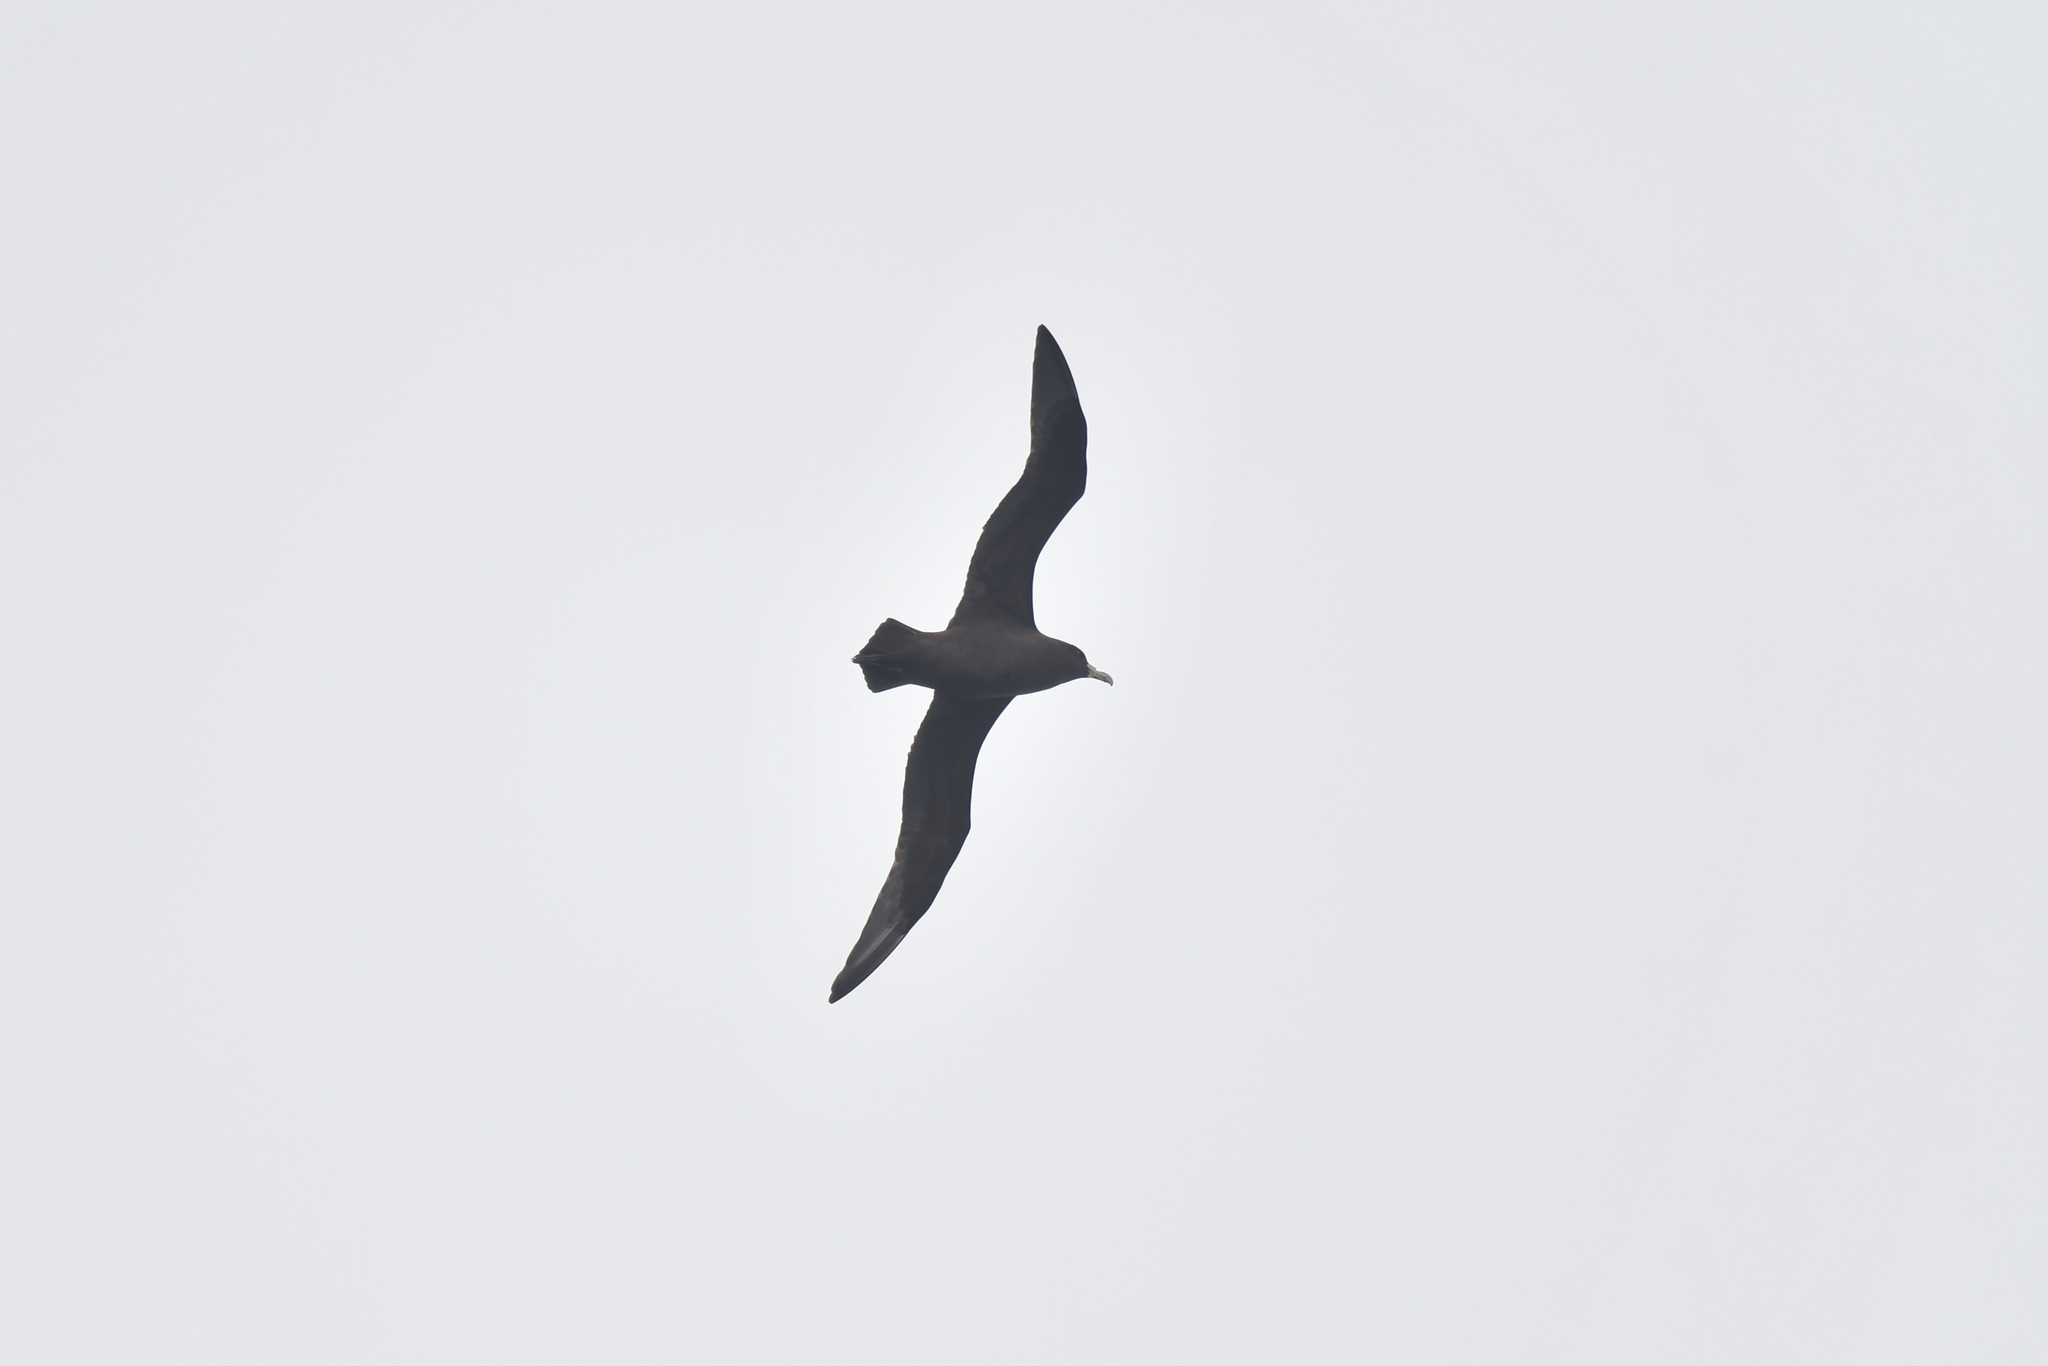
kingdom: Animalia
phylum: Chordata
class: Aves
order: Procellariiformes
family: Procellariidae
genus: Procellaria
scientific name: Procellaria aequinoctialis
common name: White-chinned petrel
